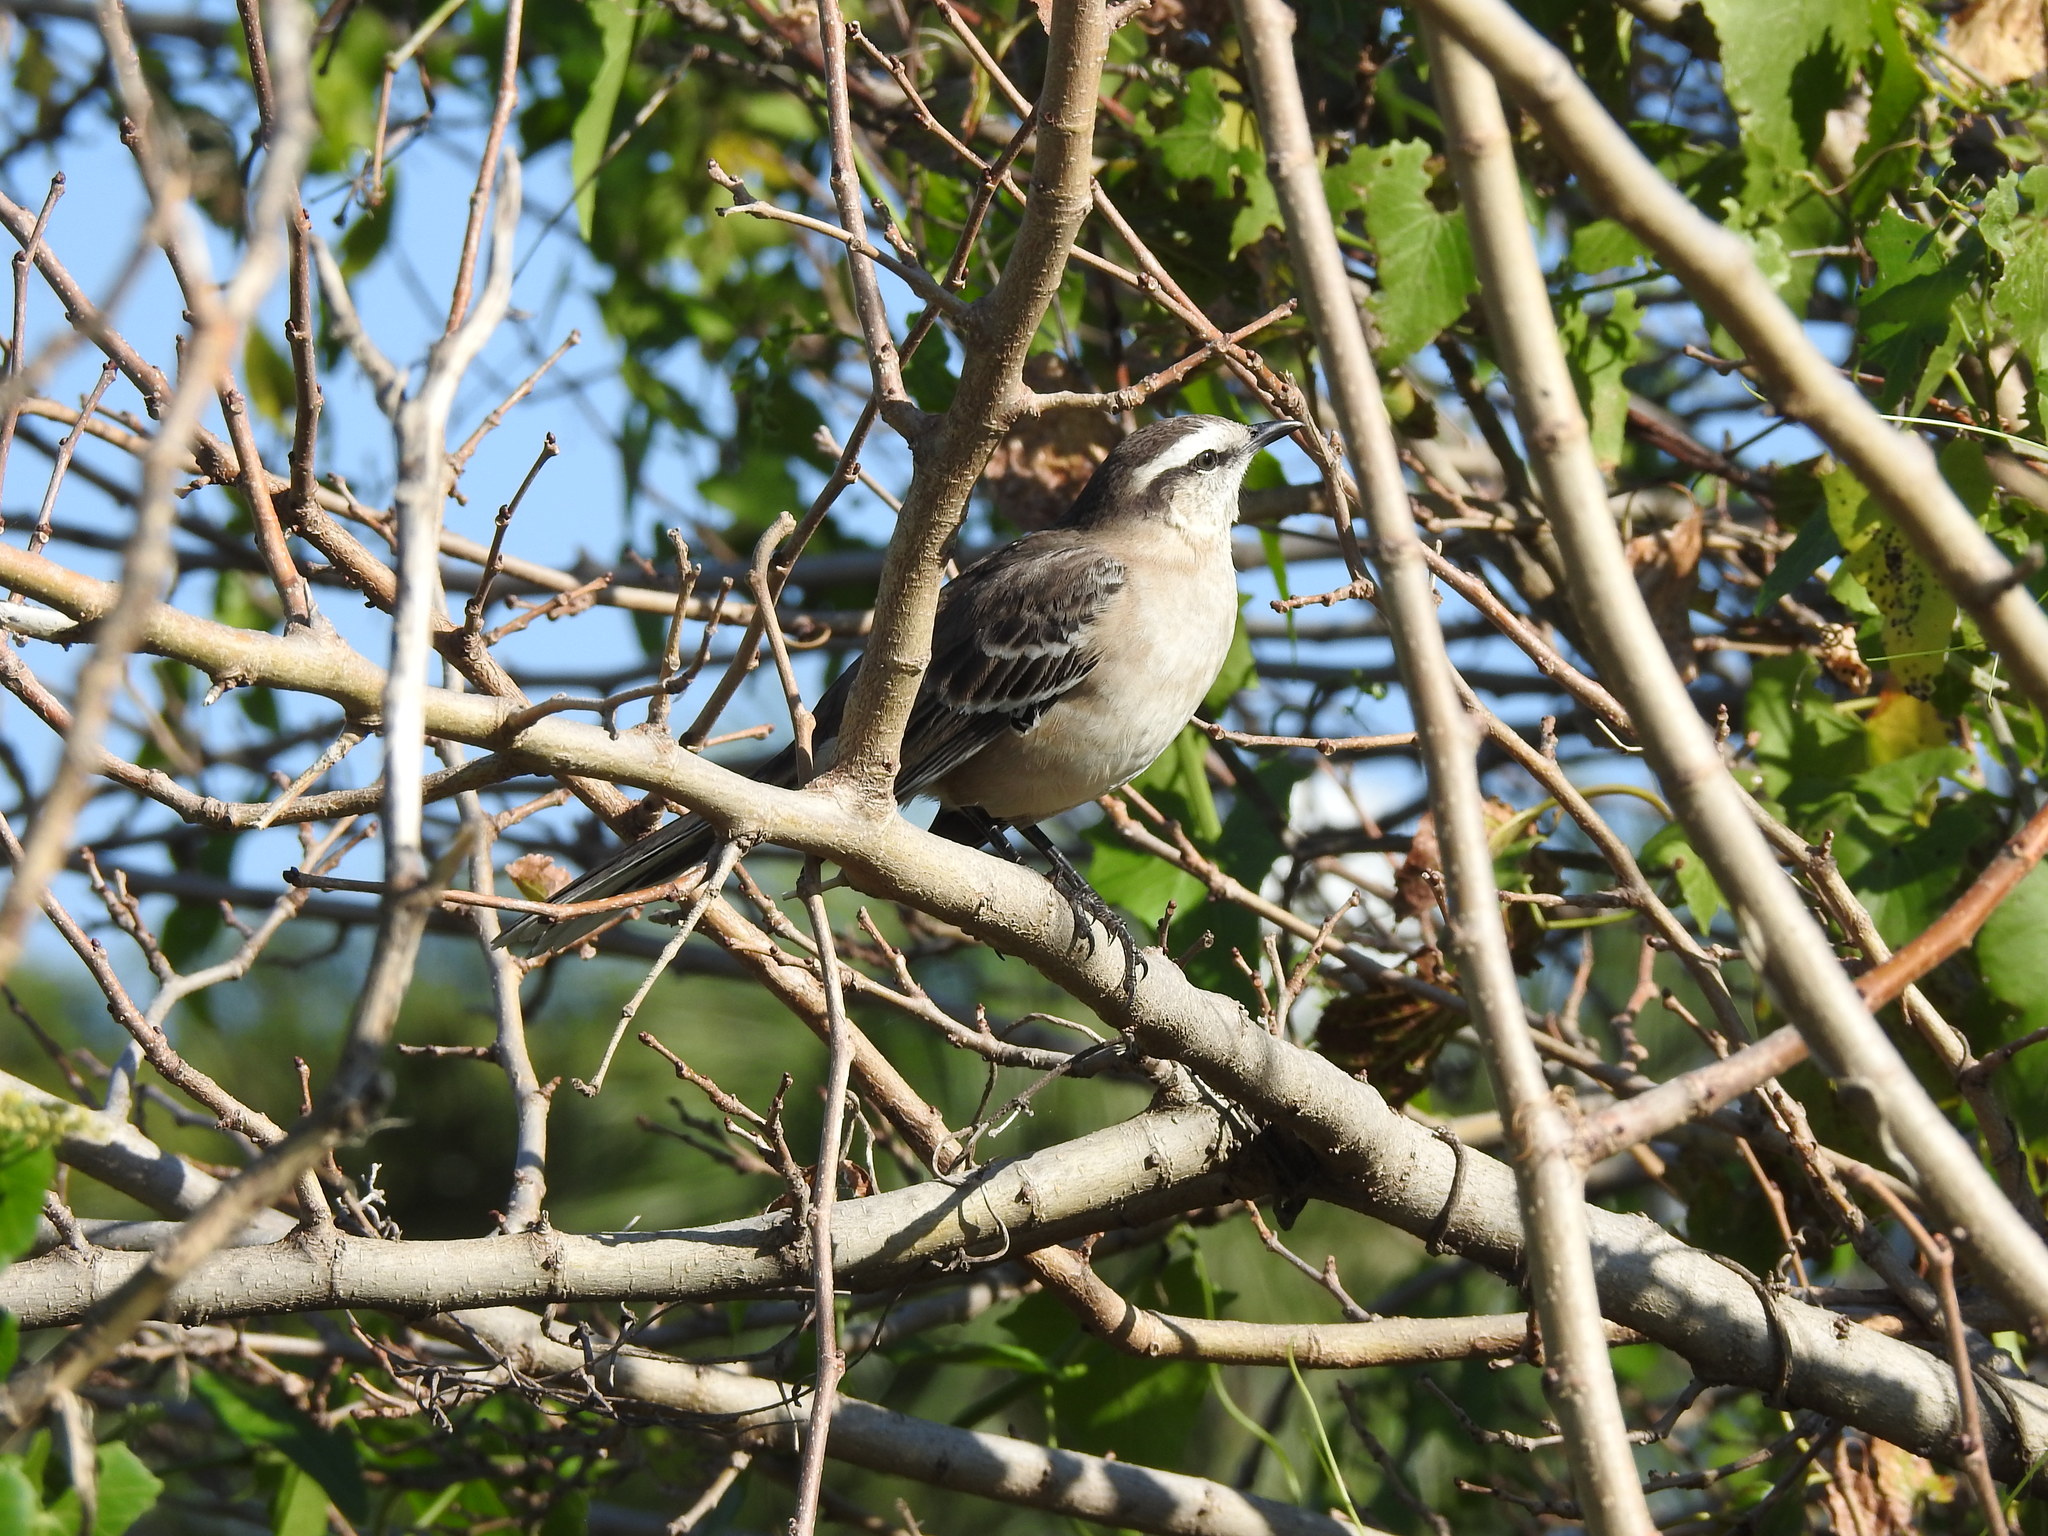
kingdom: Animalia
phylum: Chordata
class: Aves
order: Passeriformes
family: Mimidae
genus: Mimus
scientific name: Mimus saturninus
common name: Chalk-browed mockingbird
